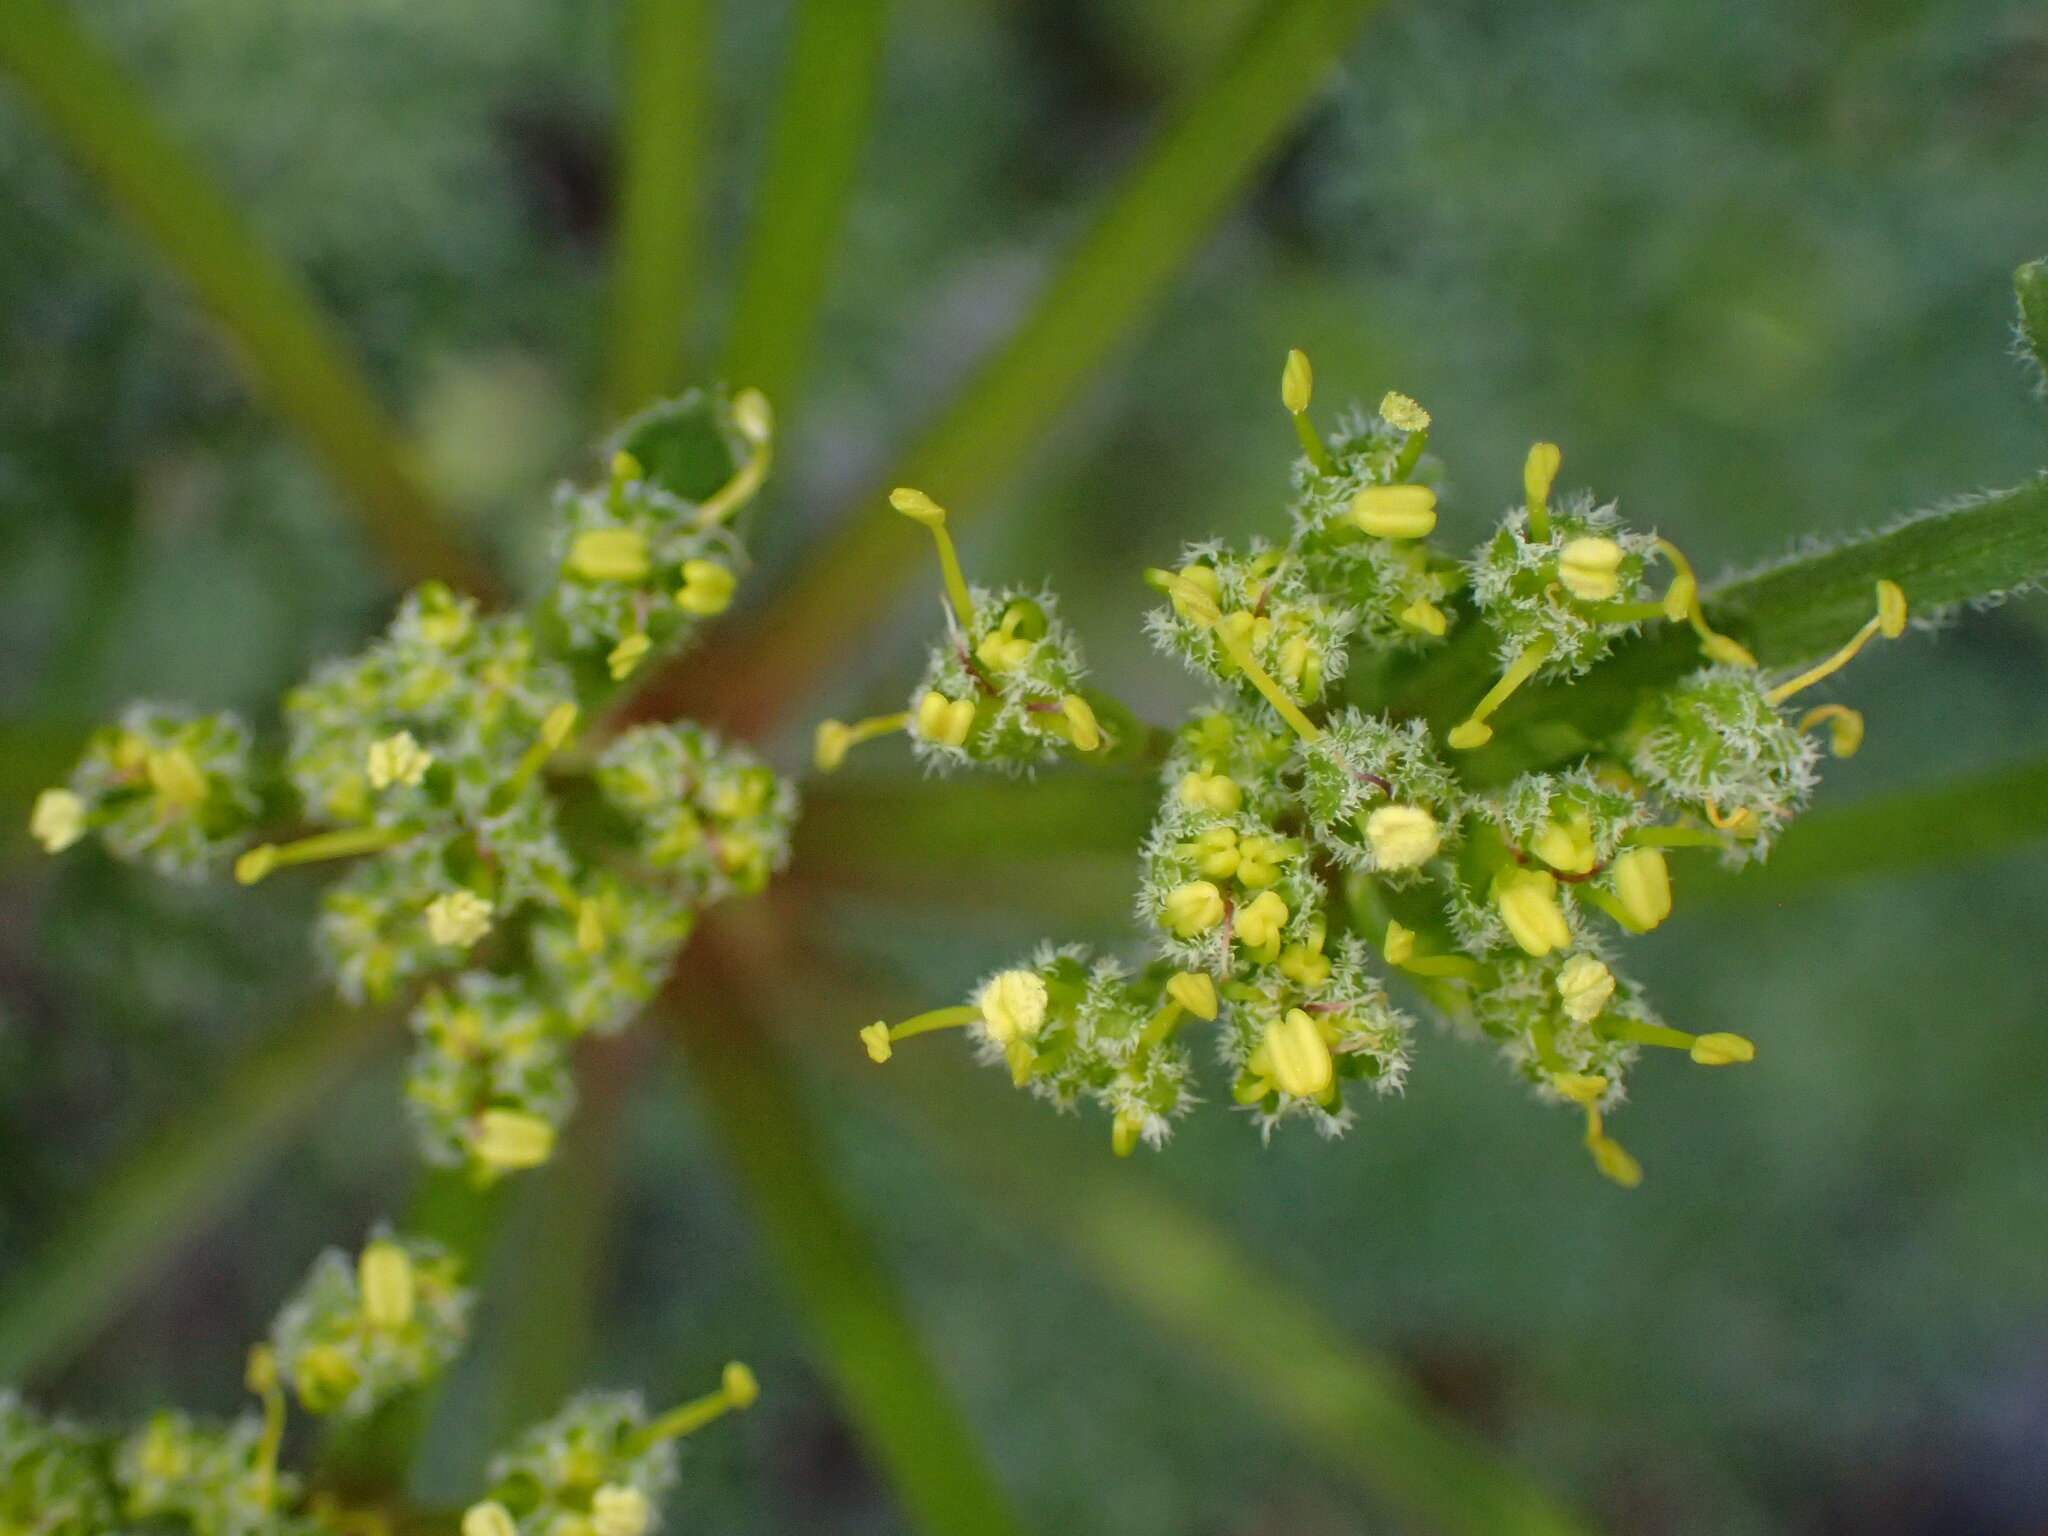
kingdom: Plantae
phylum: Tracheophyta
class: Magnoliopsida
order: Apiales
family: Apiaceae
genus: Lomatium
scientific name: Lomatium dasycarpum
